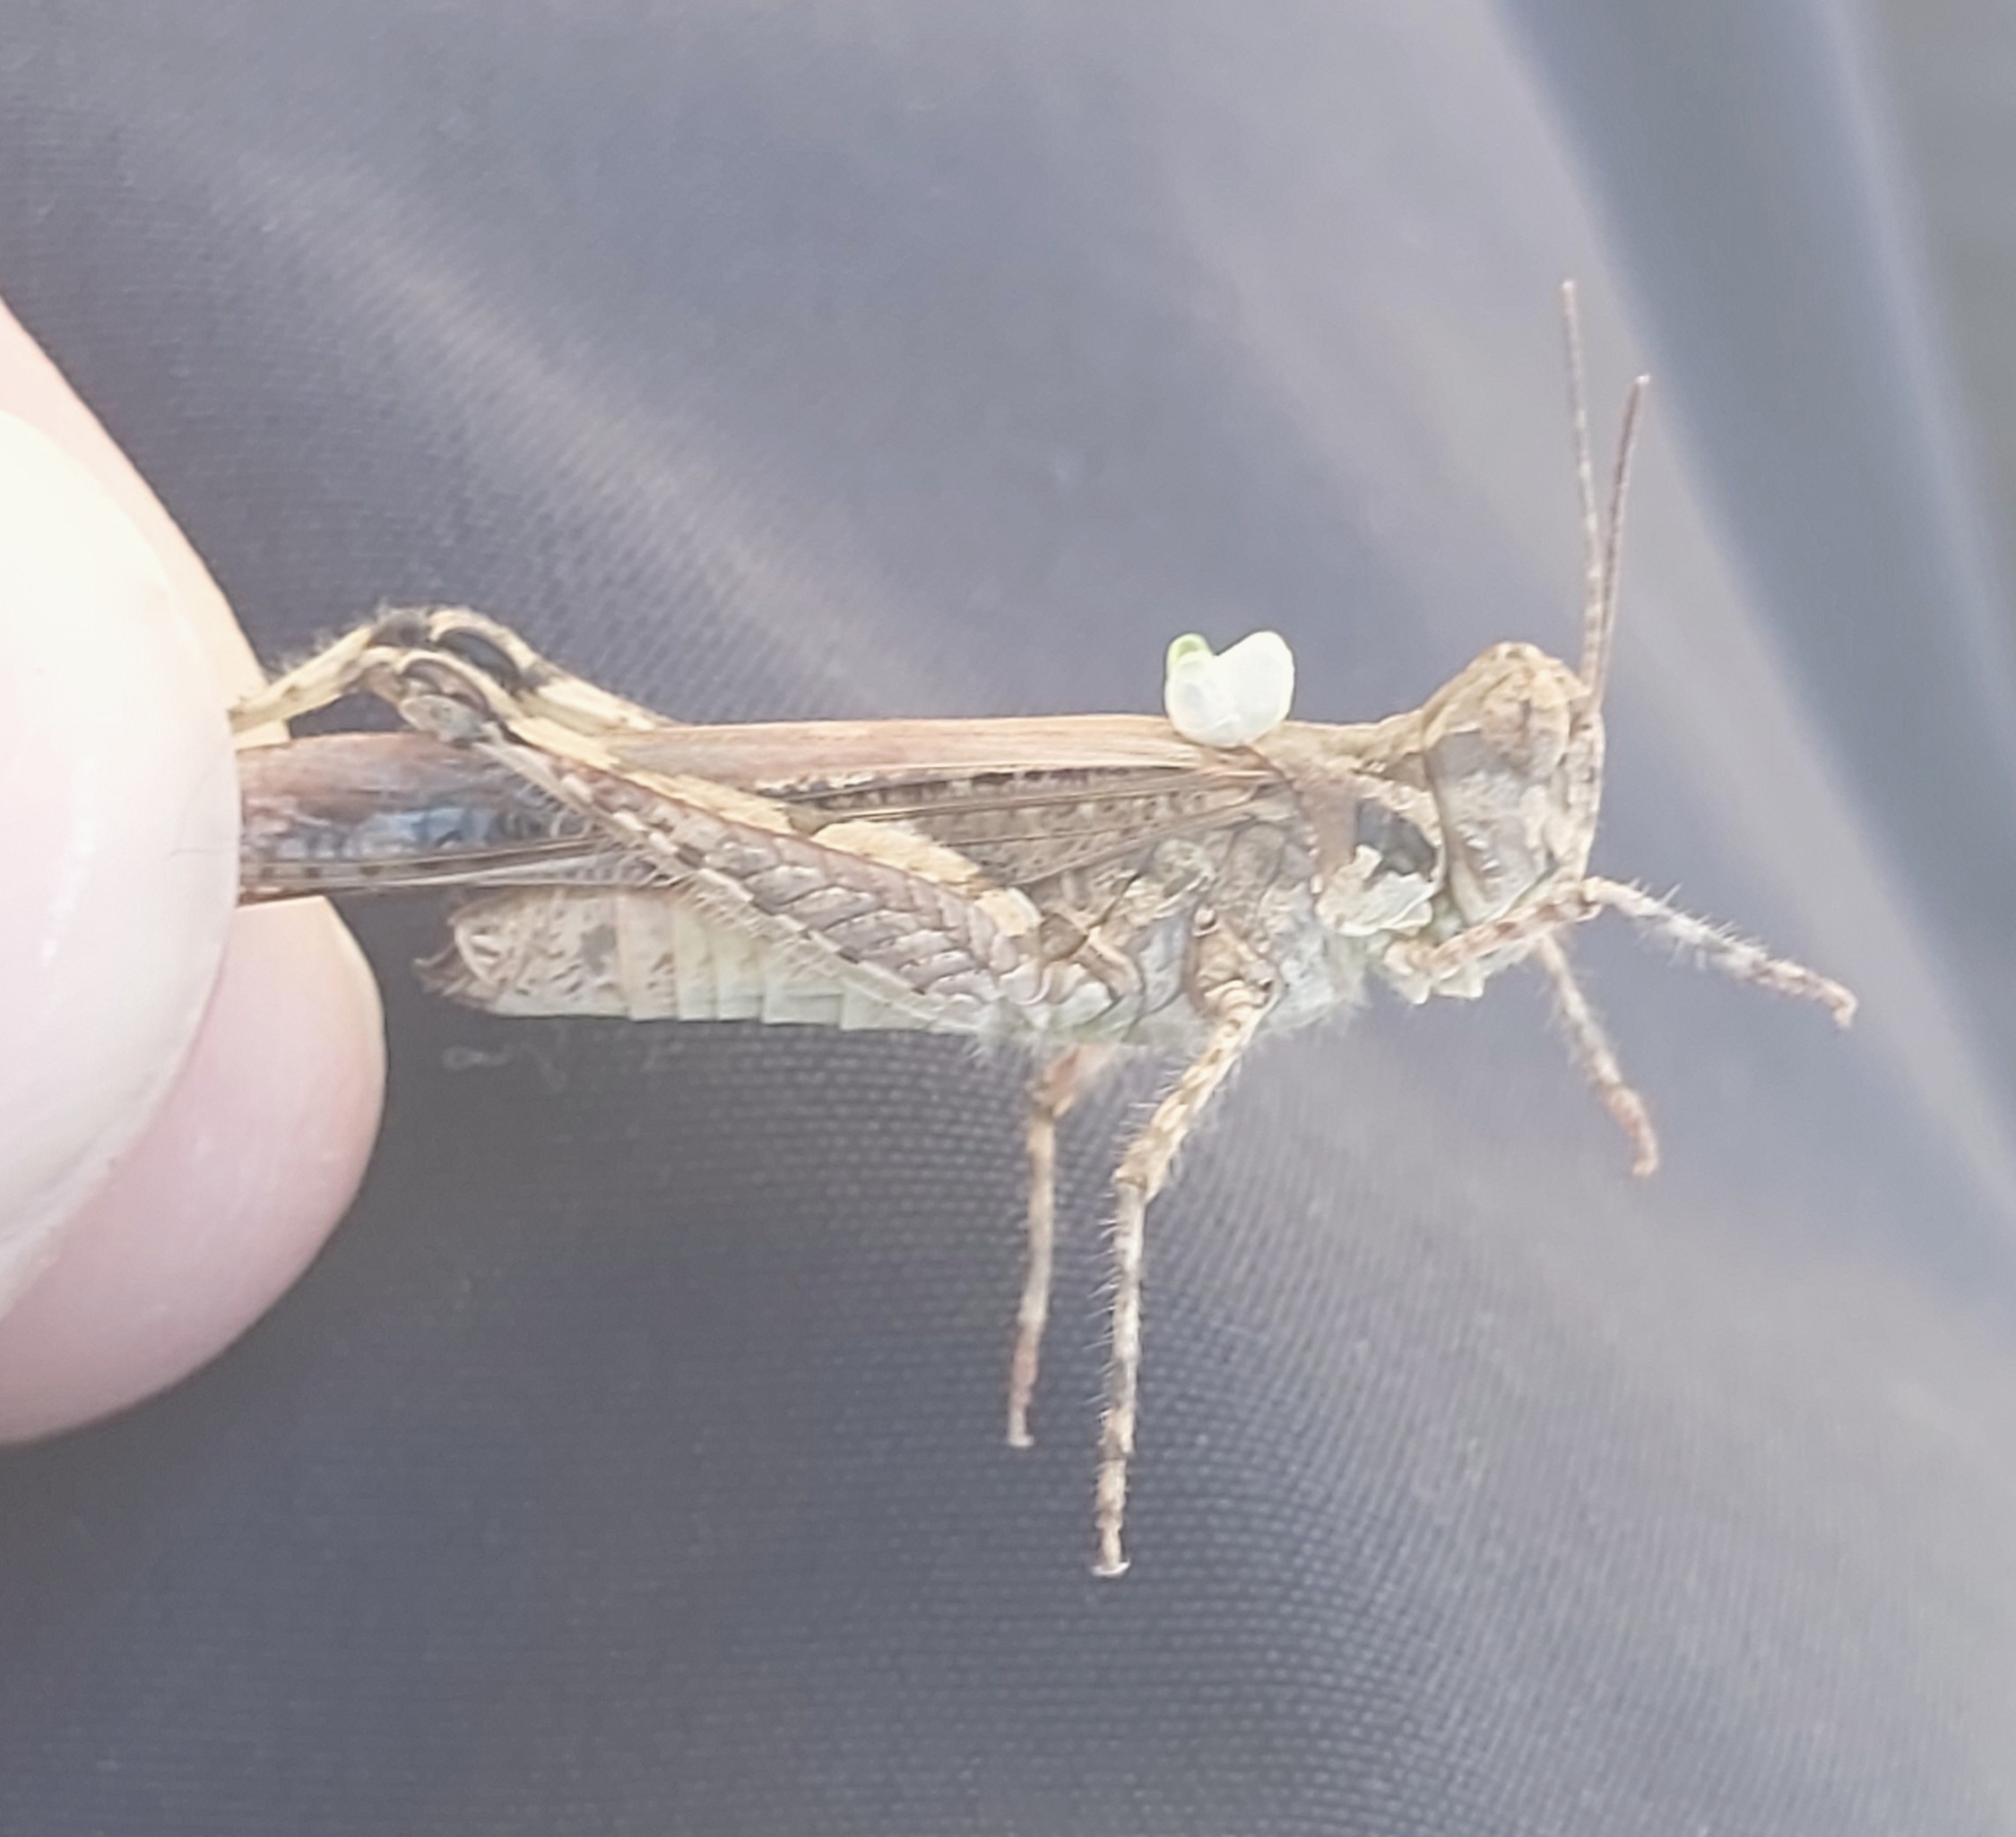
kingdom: Animalia
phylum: Arthropoda
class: Insecta
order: Orthoptera
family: Acrididae
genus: Acrotylus
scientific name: Acrotylus patruelis
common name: Slender burrowing grasshopper
